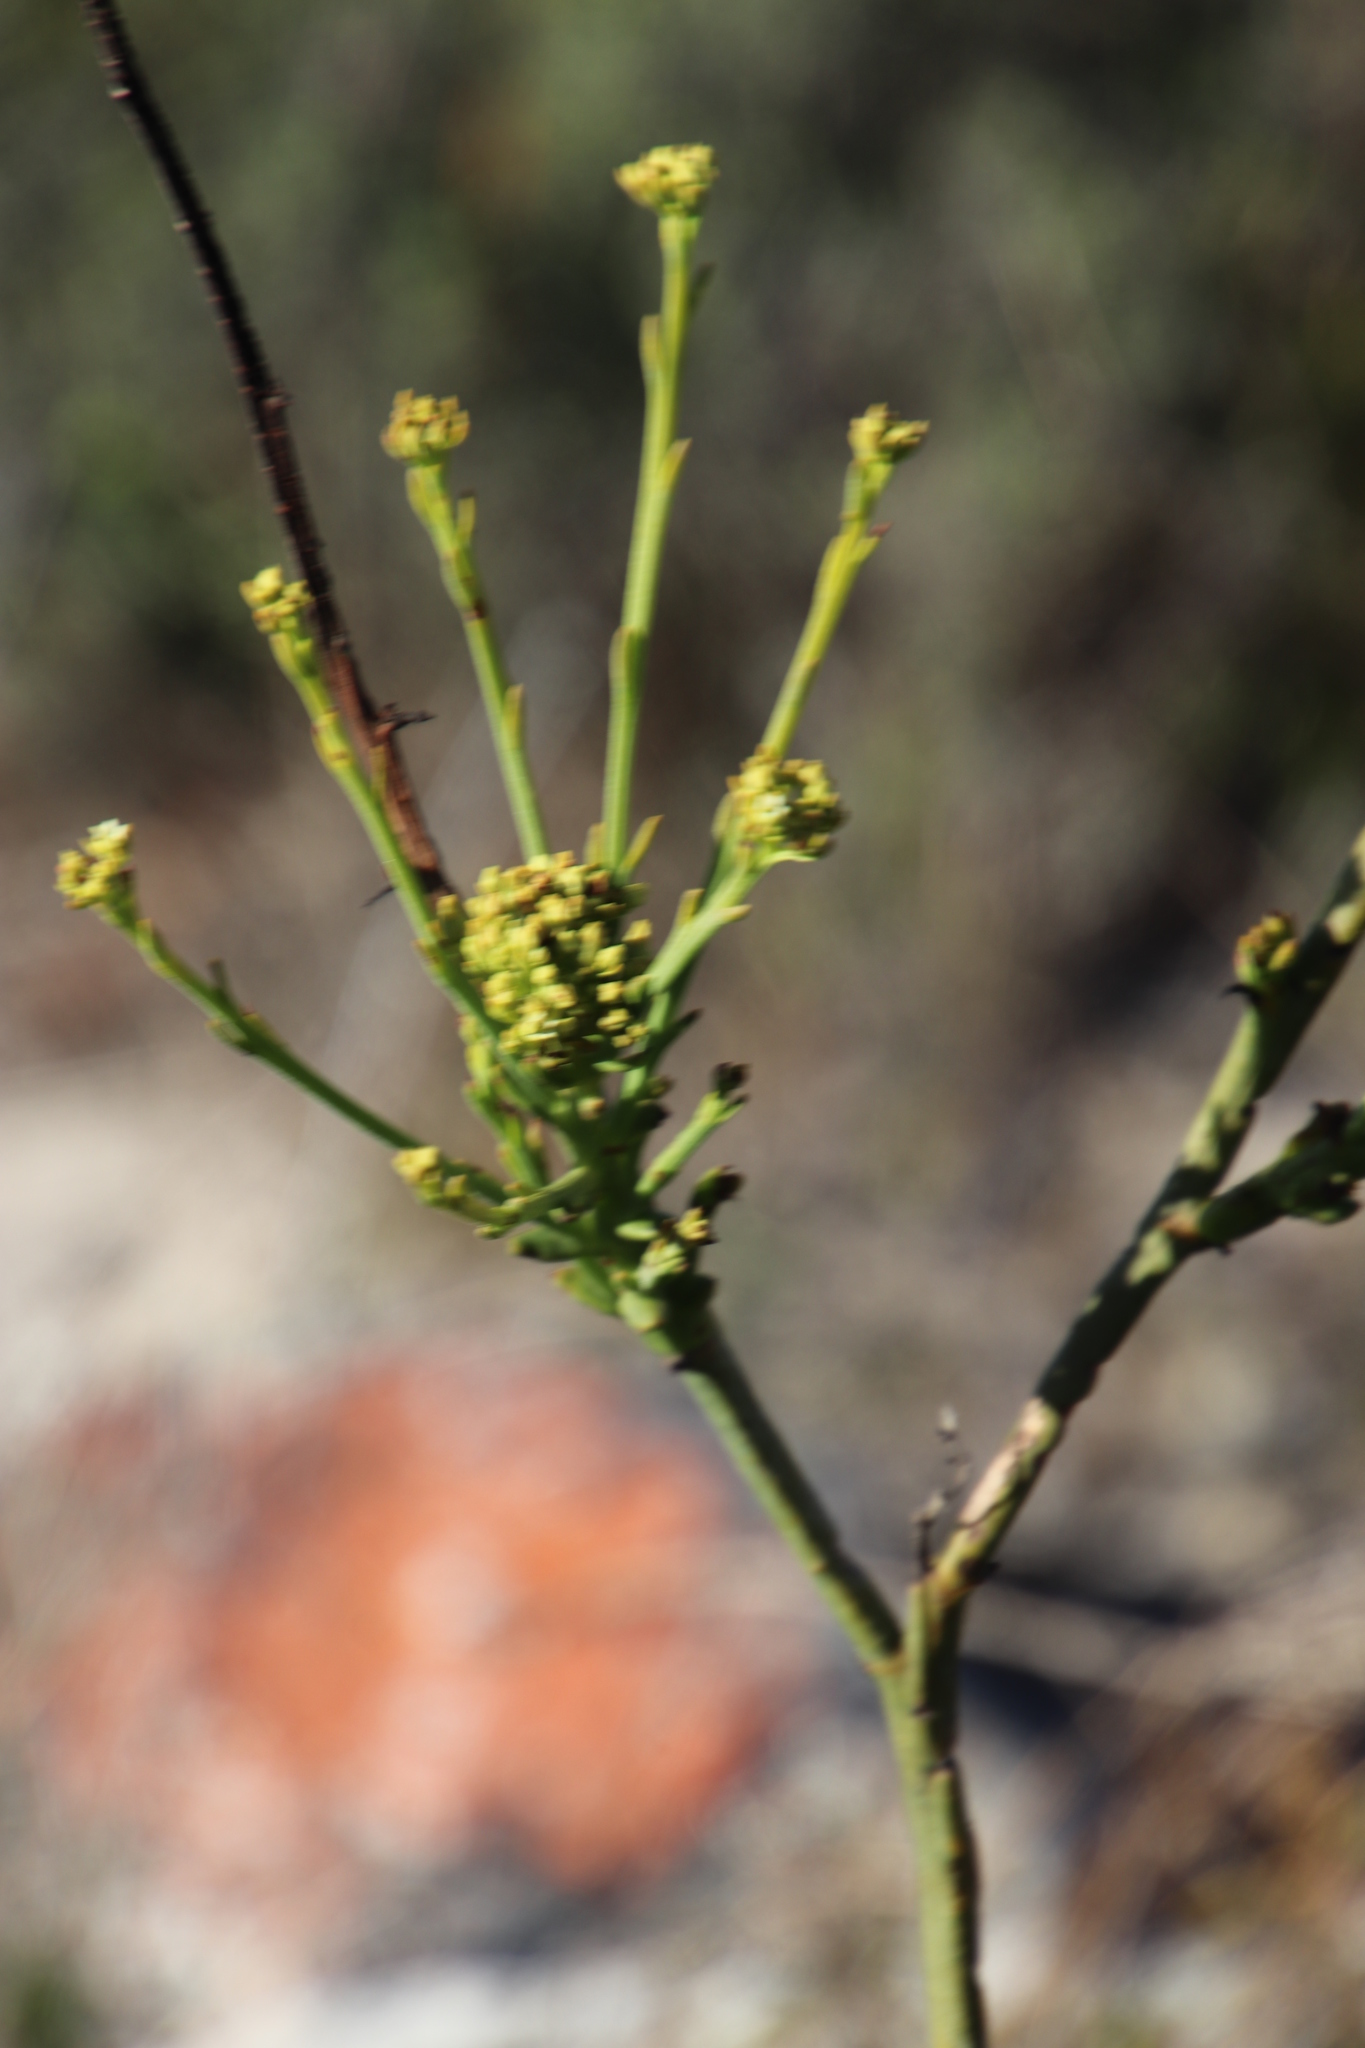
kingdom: Plantae
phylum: Tracheophyta
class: Magnoliopsida
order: Santalales
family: Thesiaceae
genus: Thesium
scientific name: Thesium strictum
